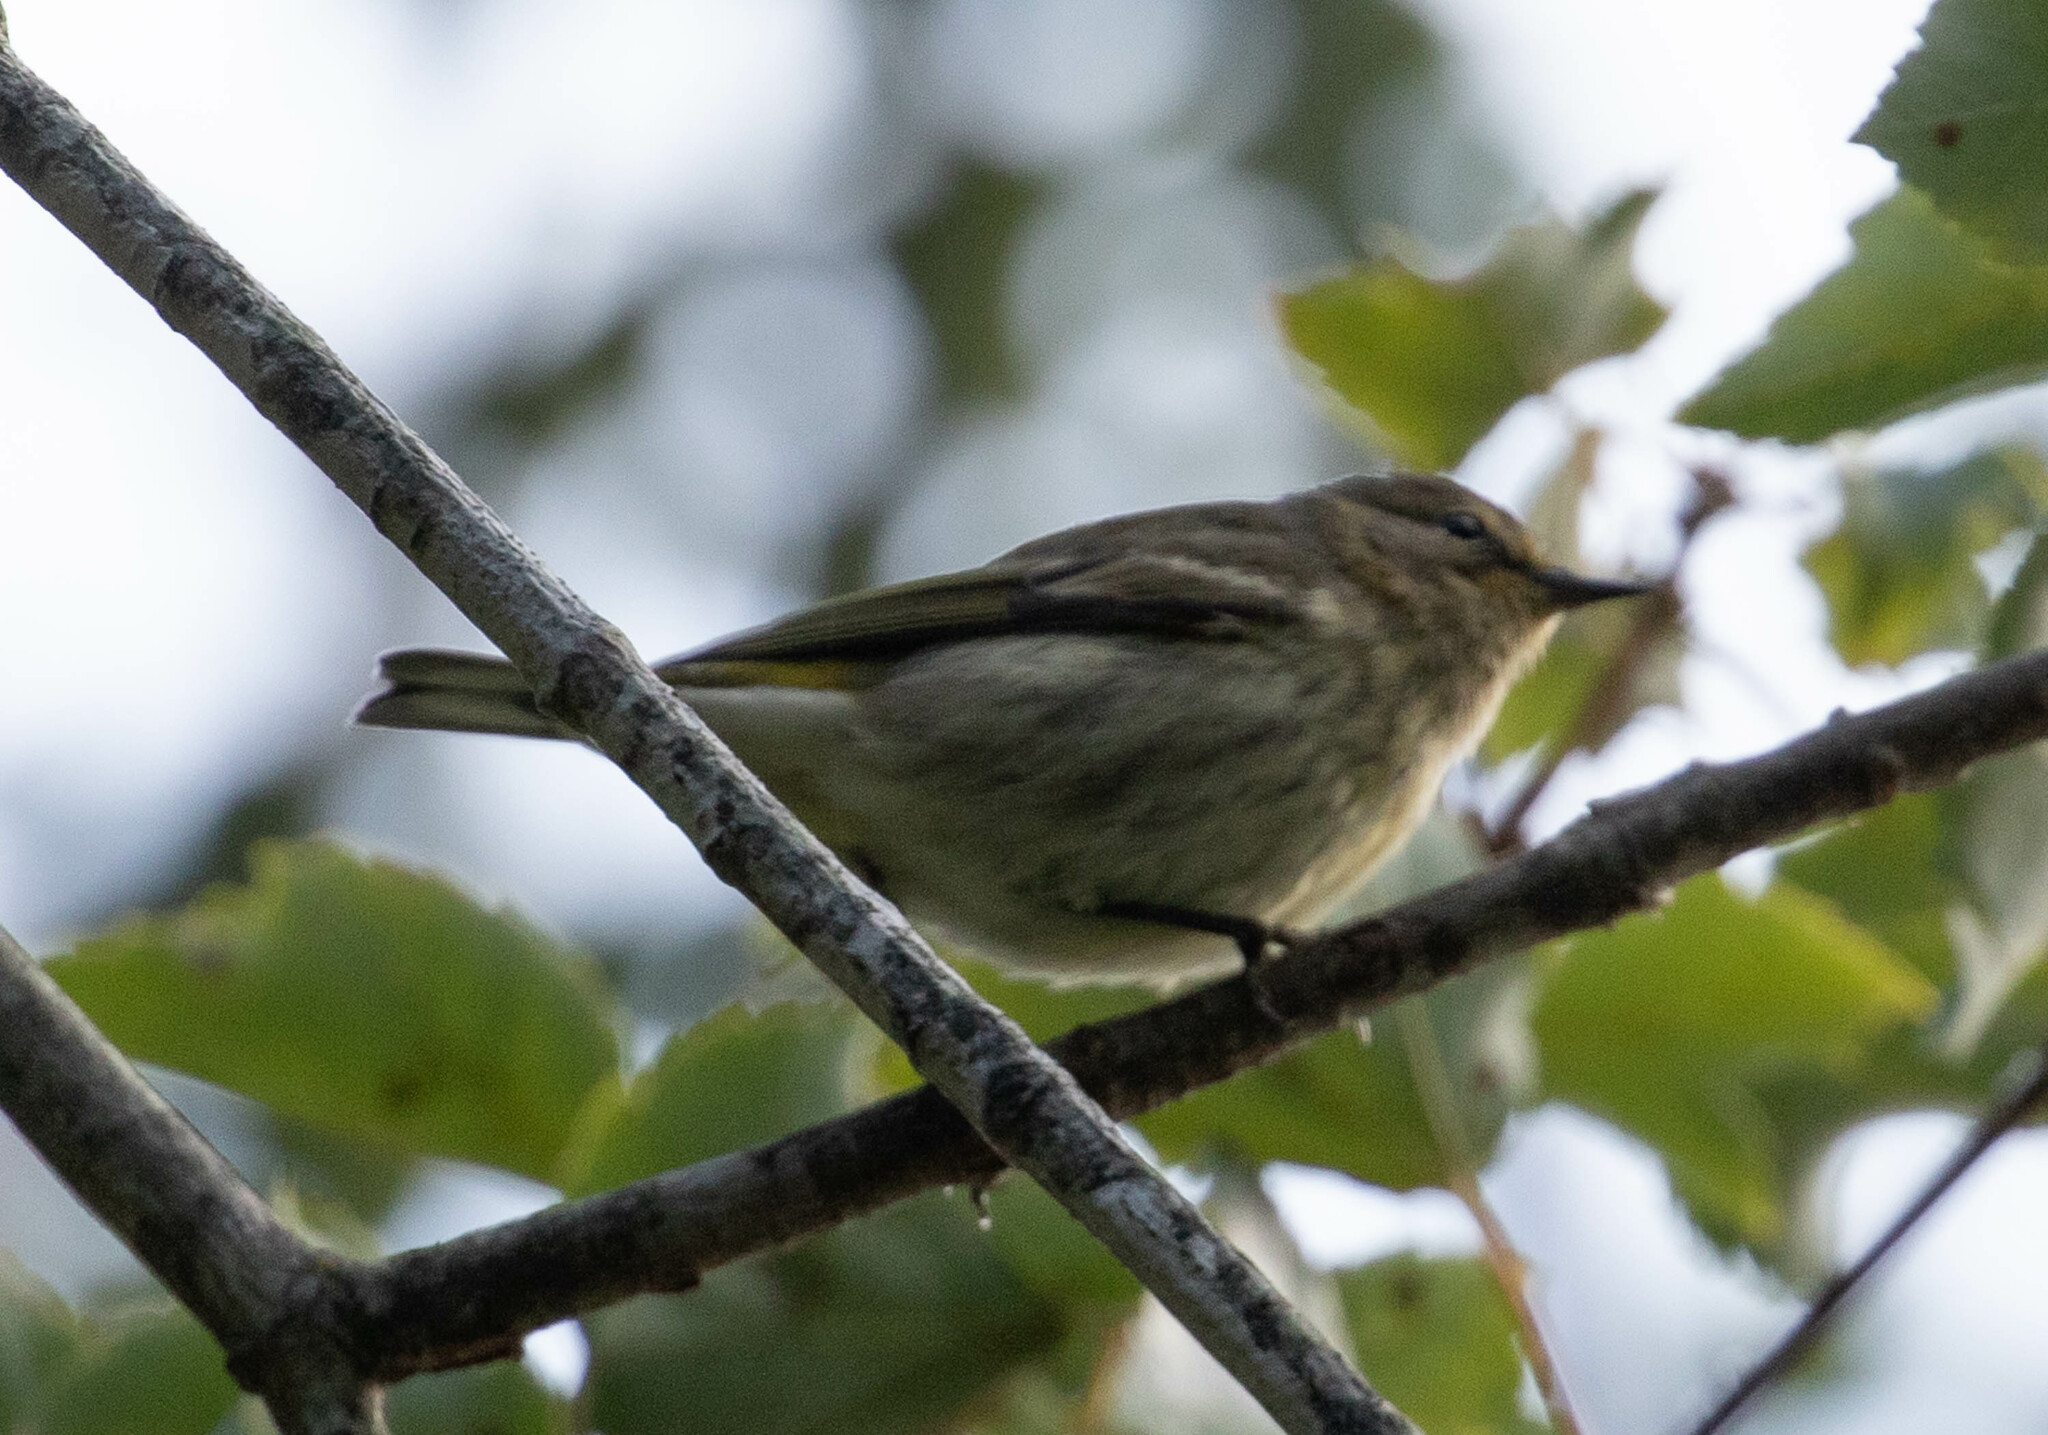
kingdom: Animalia
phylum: Chordata
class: Aves
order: Passeriformes
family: Parulidae
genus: Setophaga
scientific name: Setophaga tigrina
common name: Cape may warbler
